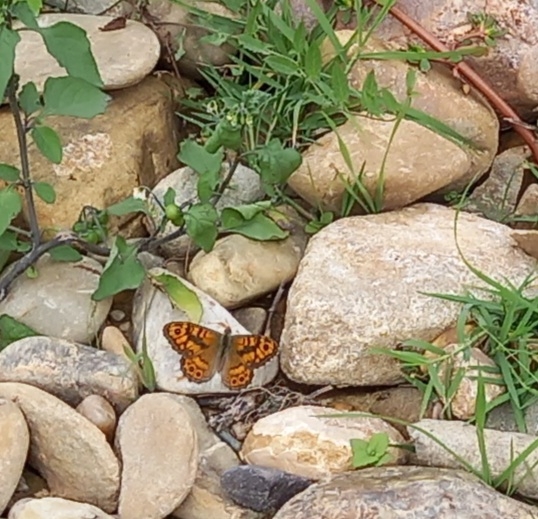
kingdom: Animalia
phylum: Arthropoda
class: Insecta
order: Lepidoptera
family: Nymphalidae
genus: Pararge
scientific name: Pararge aegeria
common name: Speckled wood
